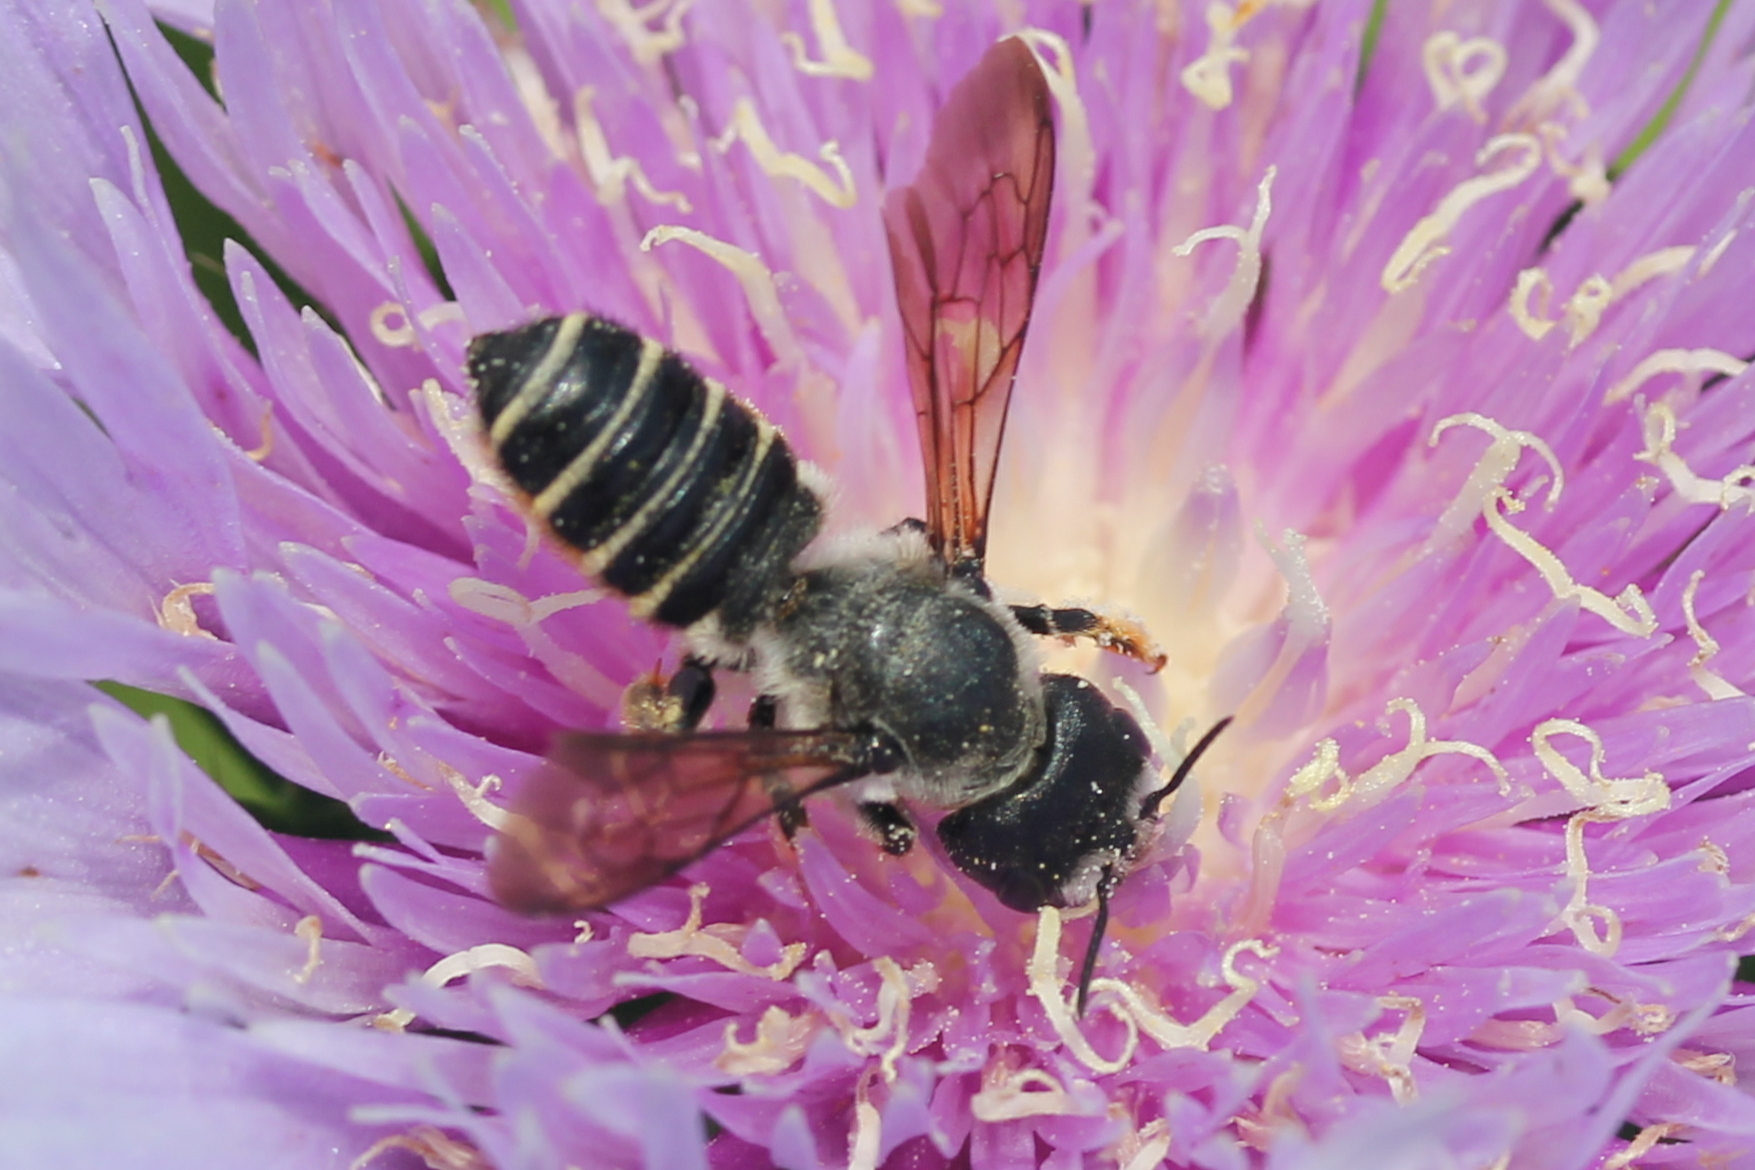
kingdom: Animalia
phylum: Arthropoda
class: Insecta
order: Hymenoptera
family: Megachilidae
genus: Megachile
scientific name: Megachile pugnata
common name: Pugnacious leafcutter bee
